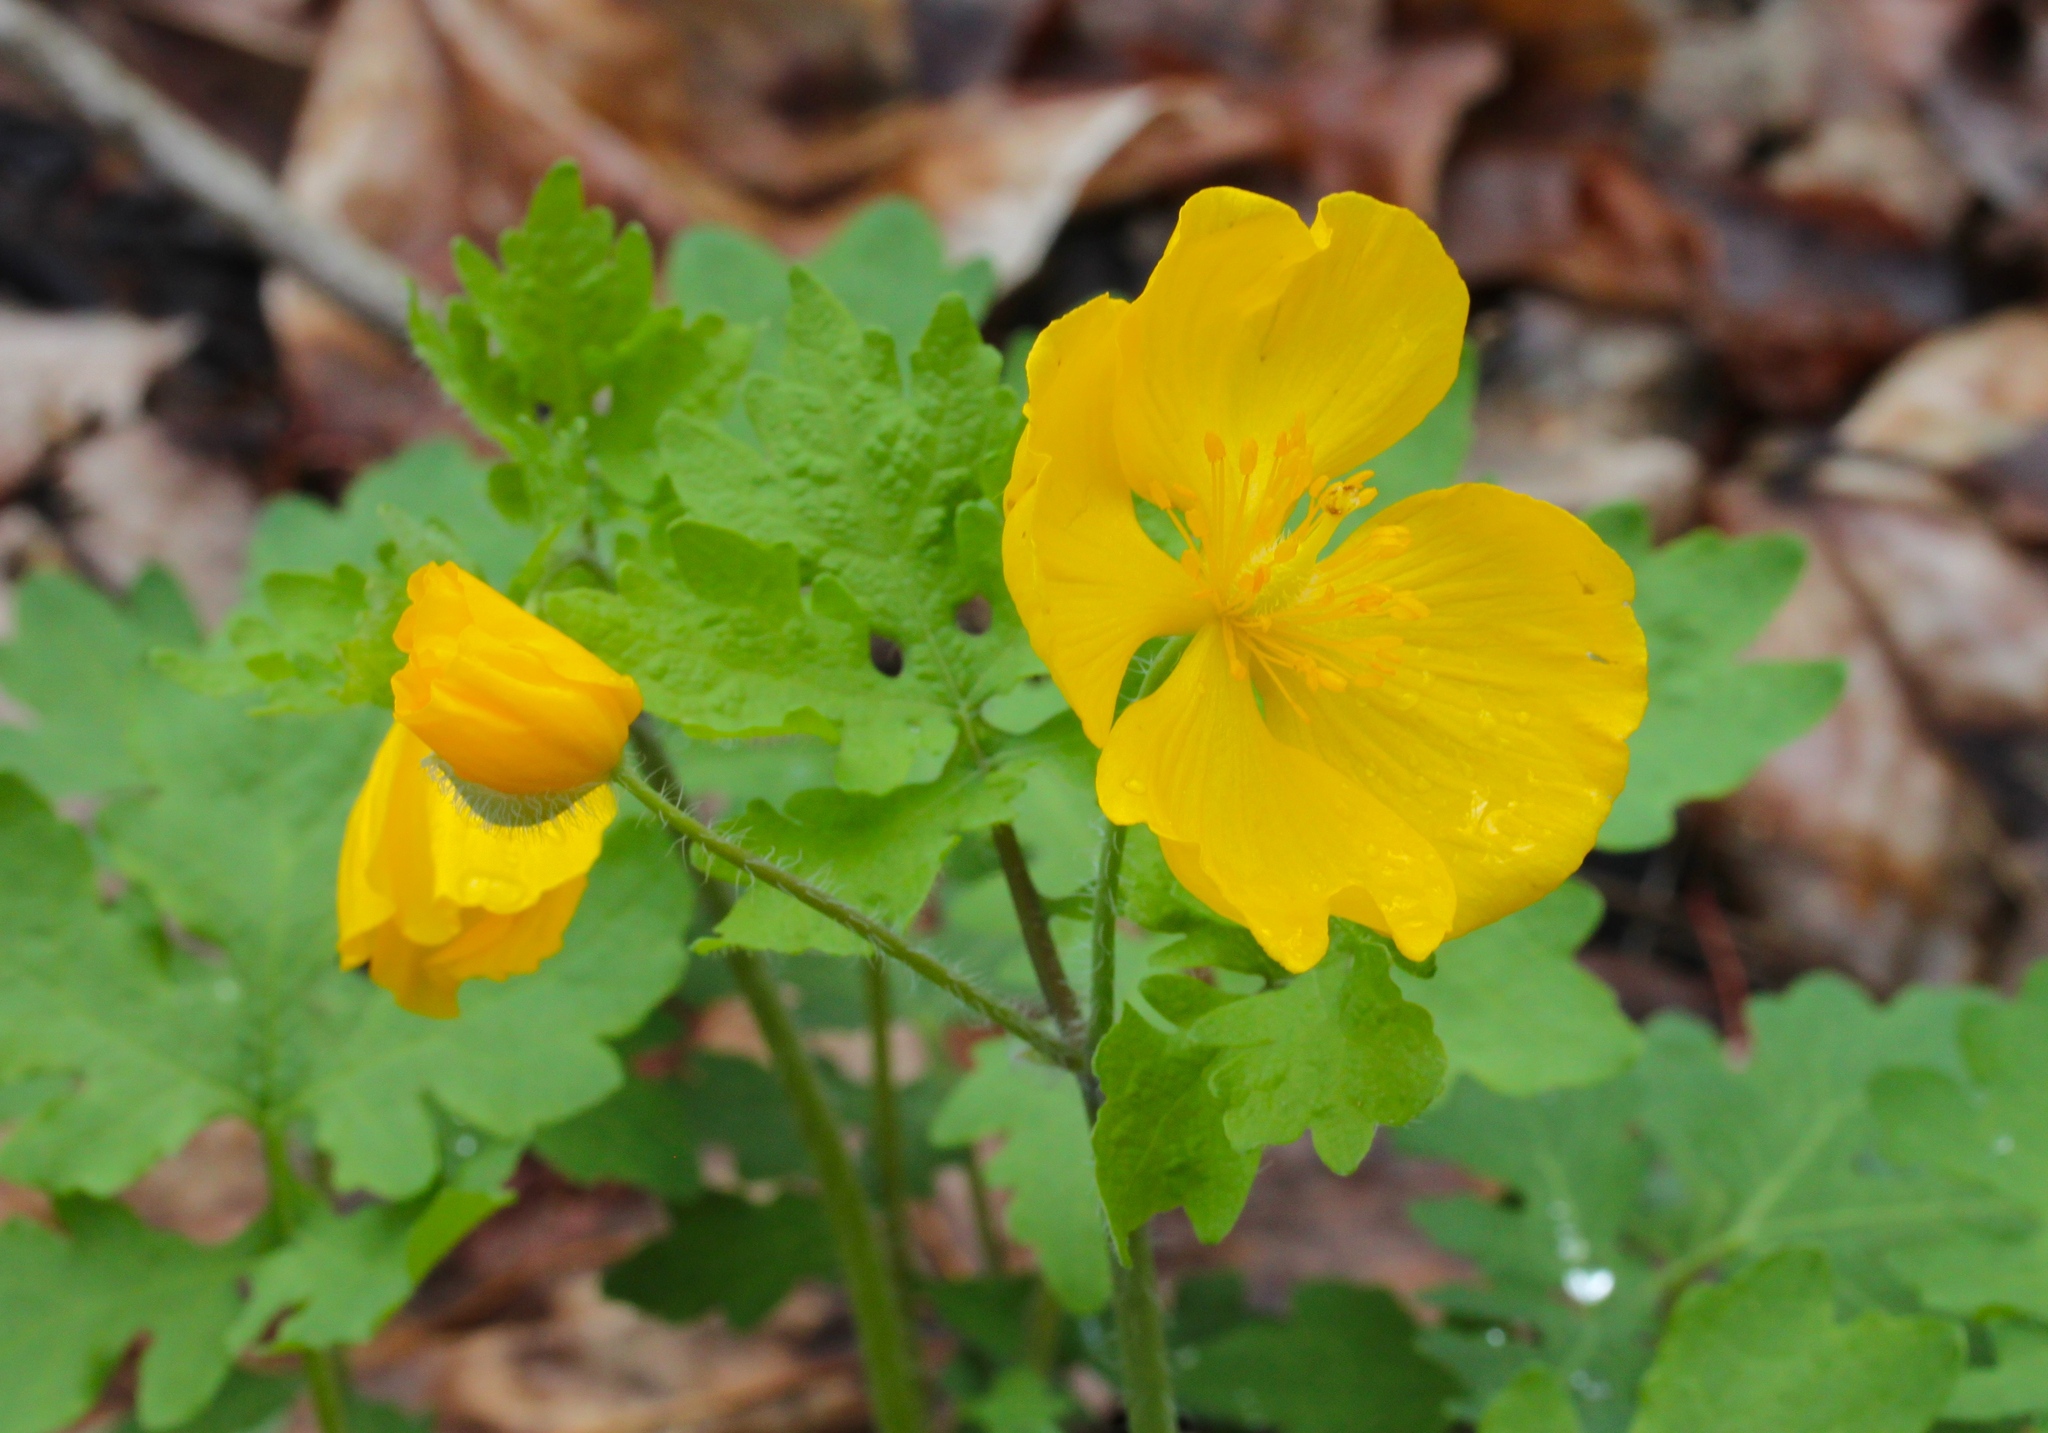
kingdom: Plantae
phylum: Tracheophyta
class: Magnoliopsida
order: Ranunculales
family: Papaveraceae
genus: Stylophorum
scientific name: Stylophorum diphyllum
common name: Celandine poppy
